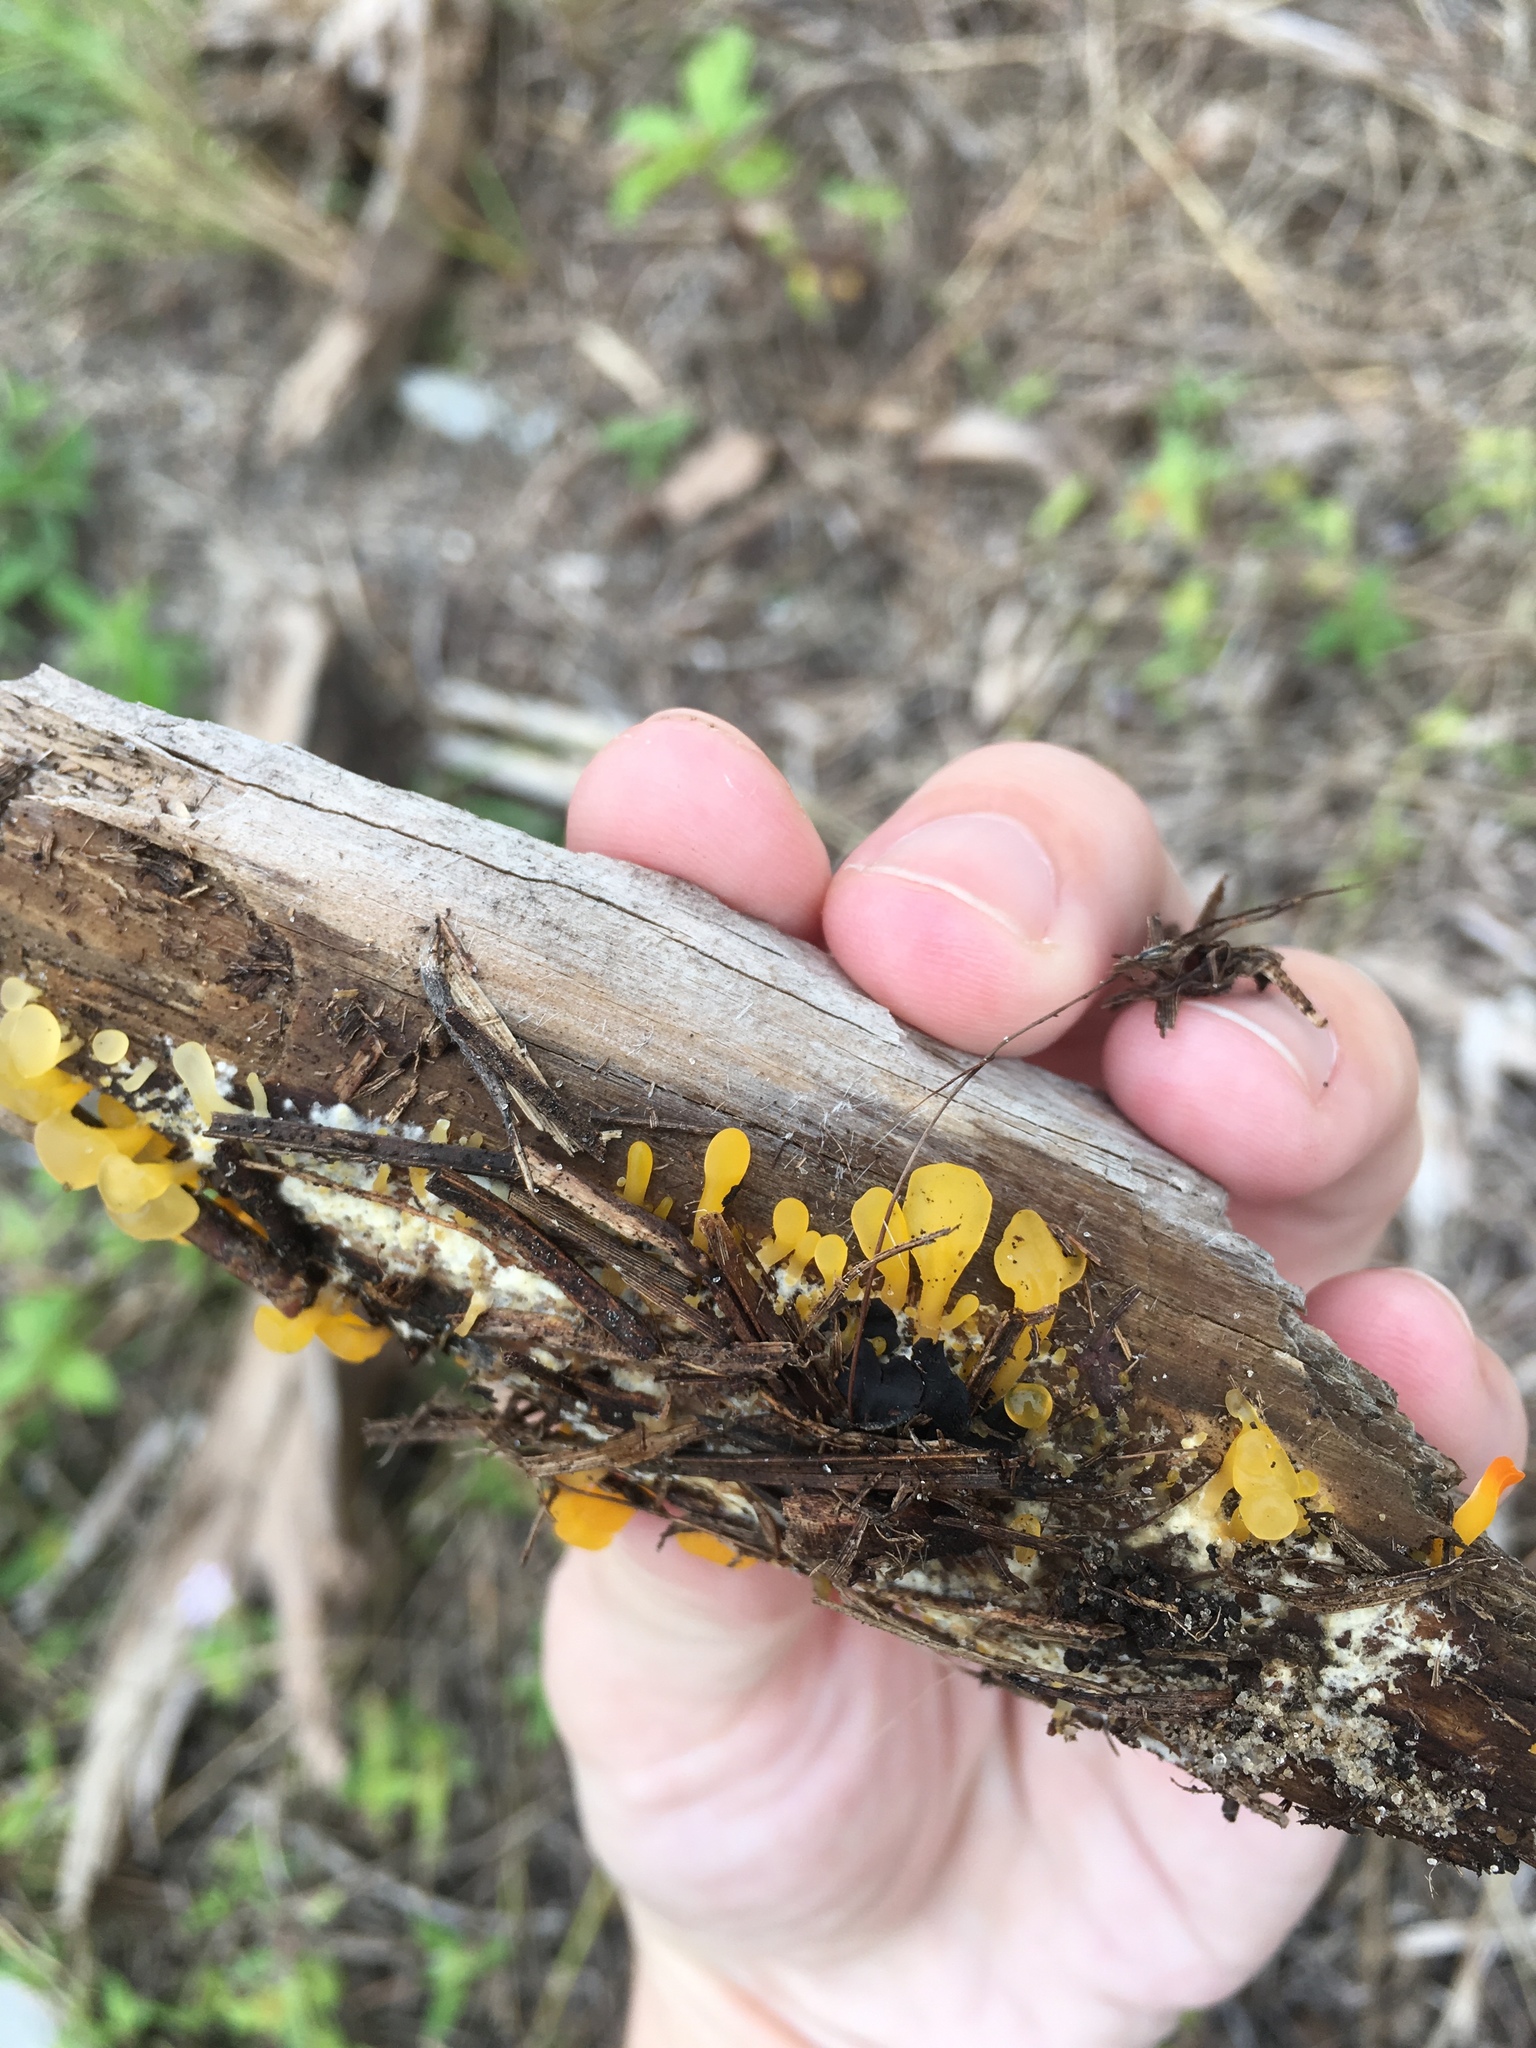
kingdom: Fungi
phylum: Basidiomycota
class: Dacrymycetes
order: Dacrymycetales
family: Dacrymycetaceae
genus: Dacrymyces
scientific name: Dacrymyces spathularius
